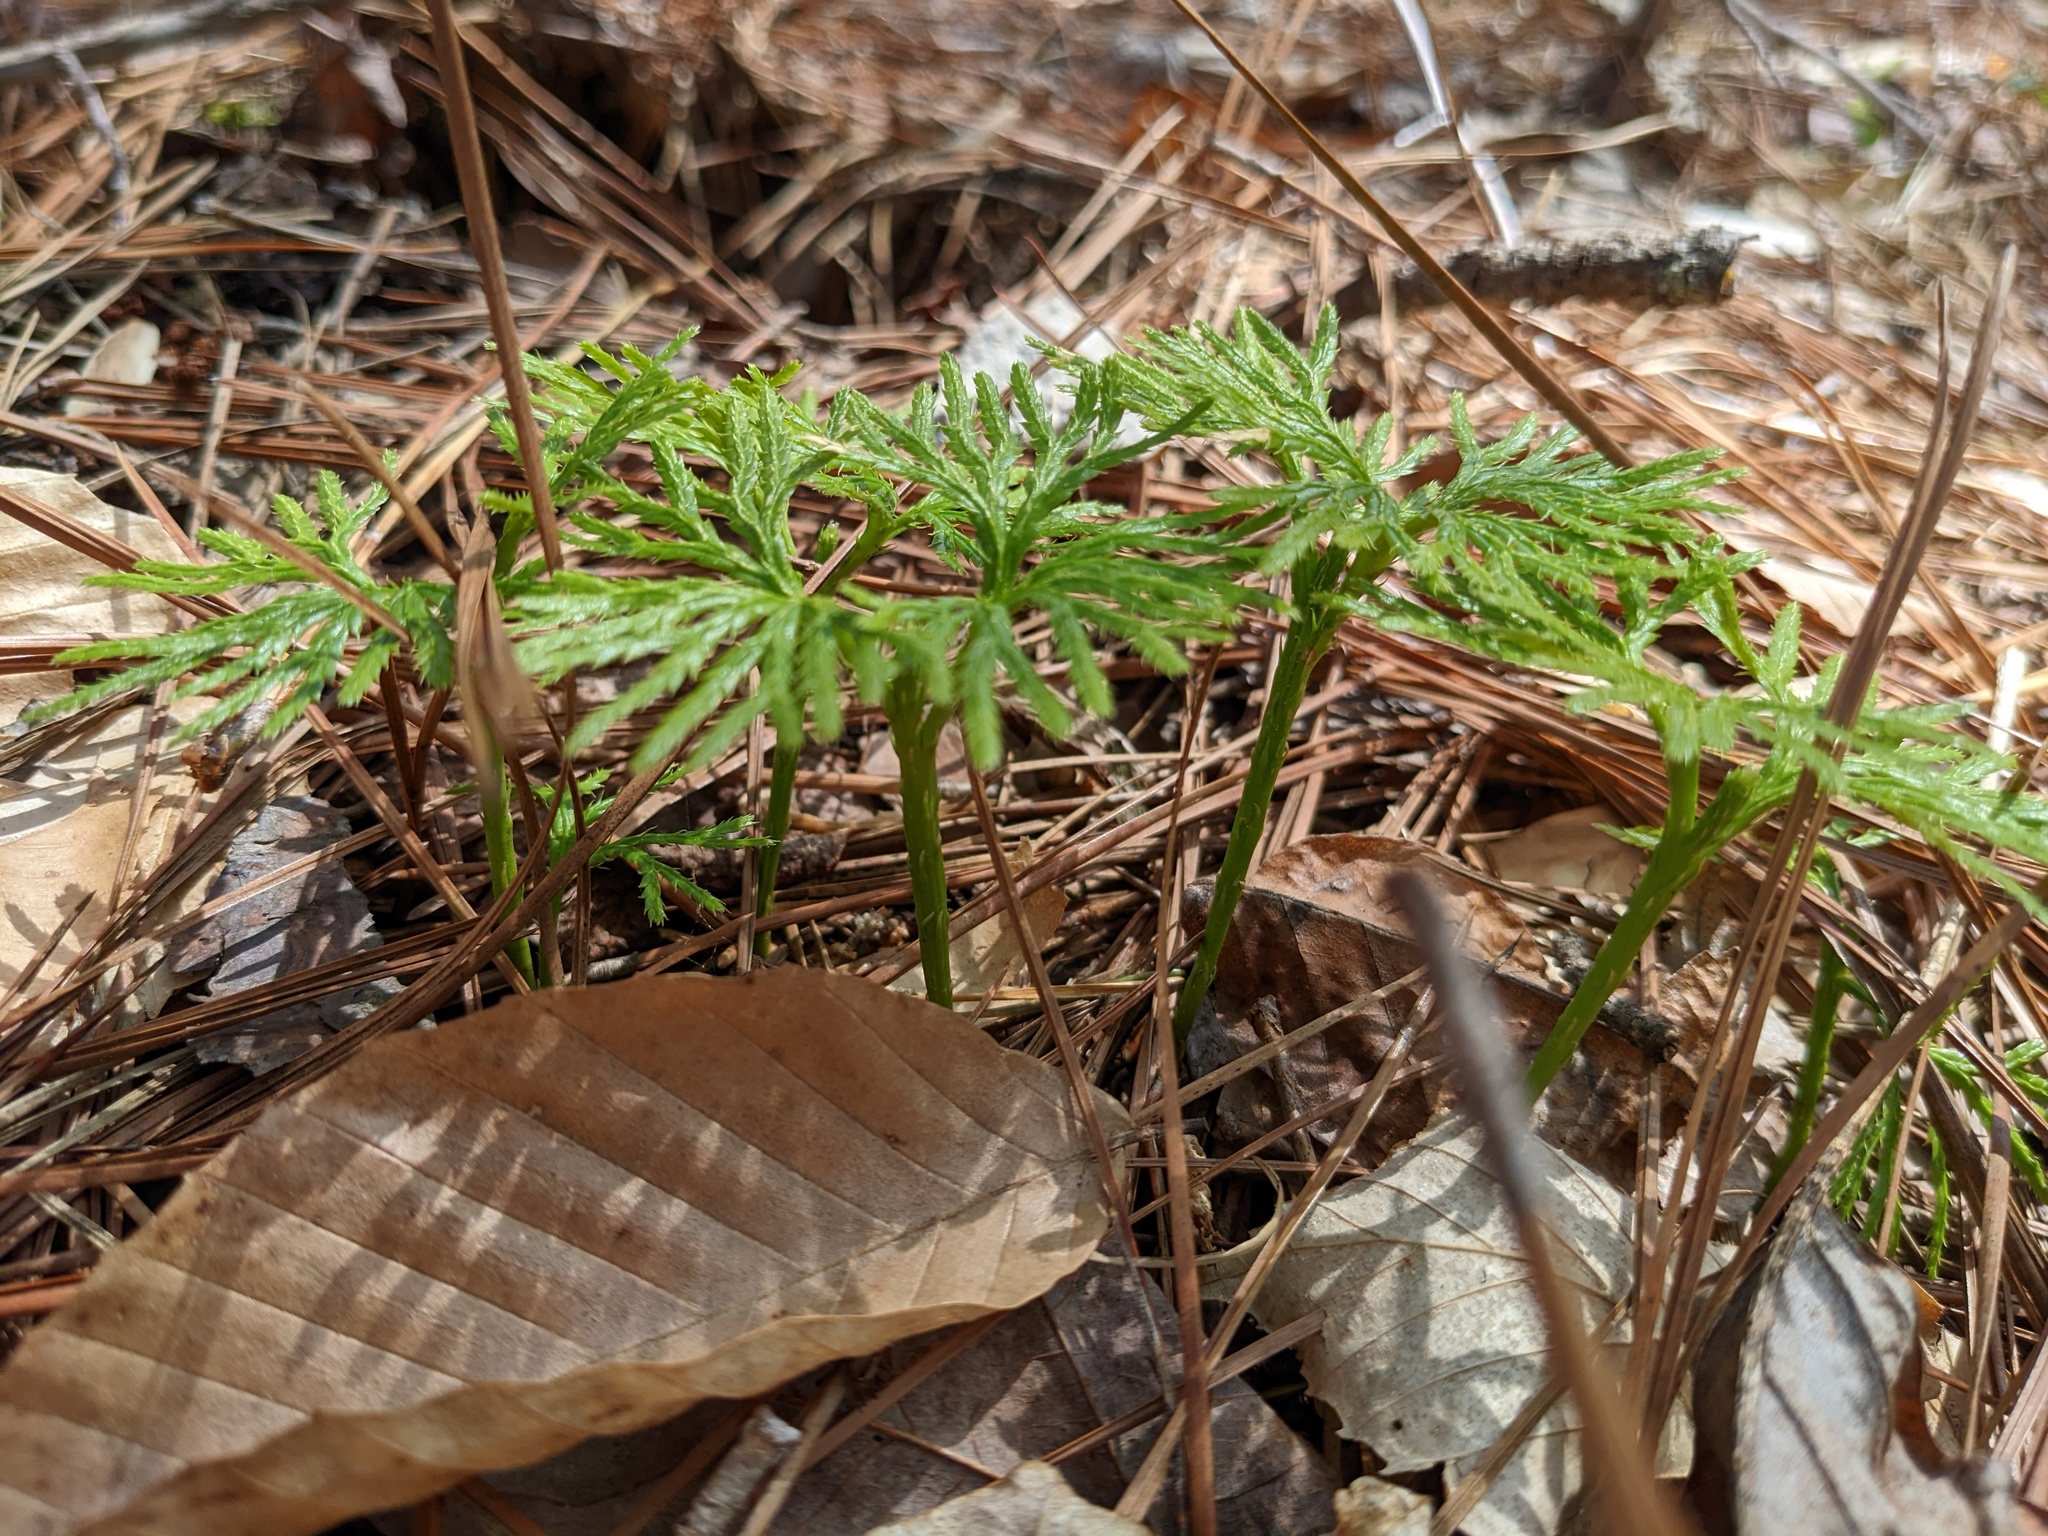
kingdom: Plantae
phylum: Tracheophyta
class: Lycopodiopsida
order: Lycopodiales
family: Lycopodiaceae
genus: Diphasiastrum
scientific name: Diphasiastrum digitatum
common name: Southern running-pine
